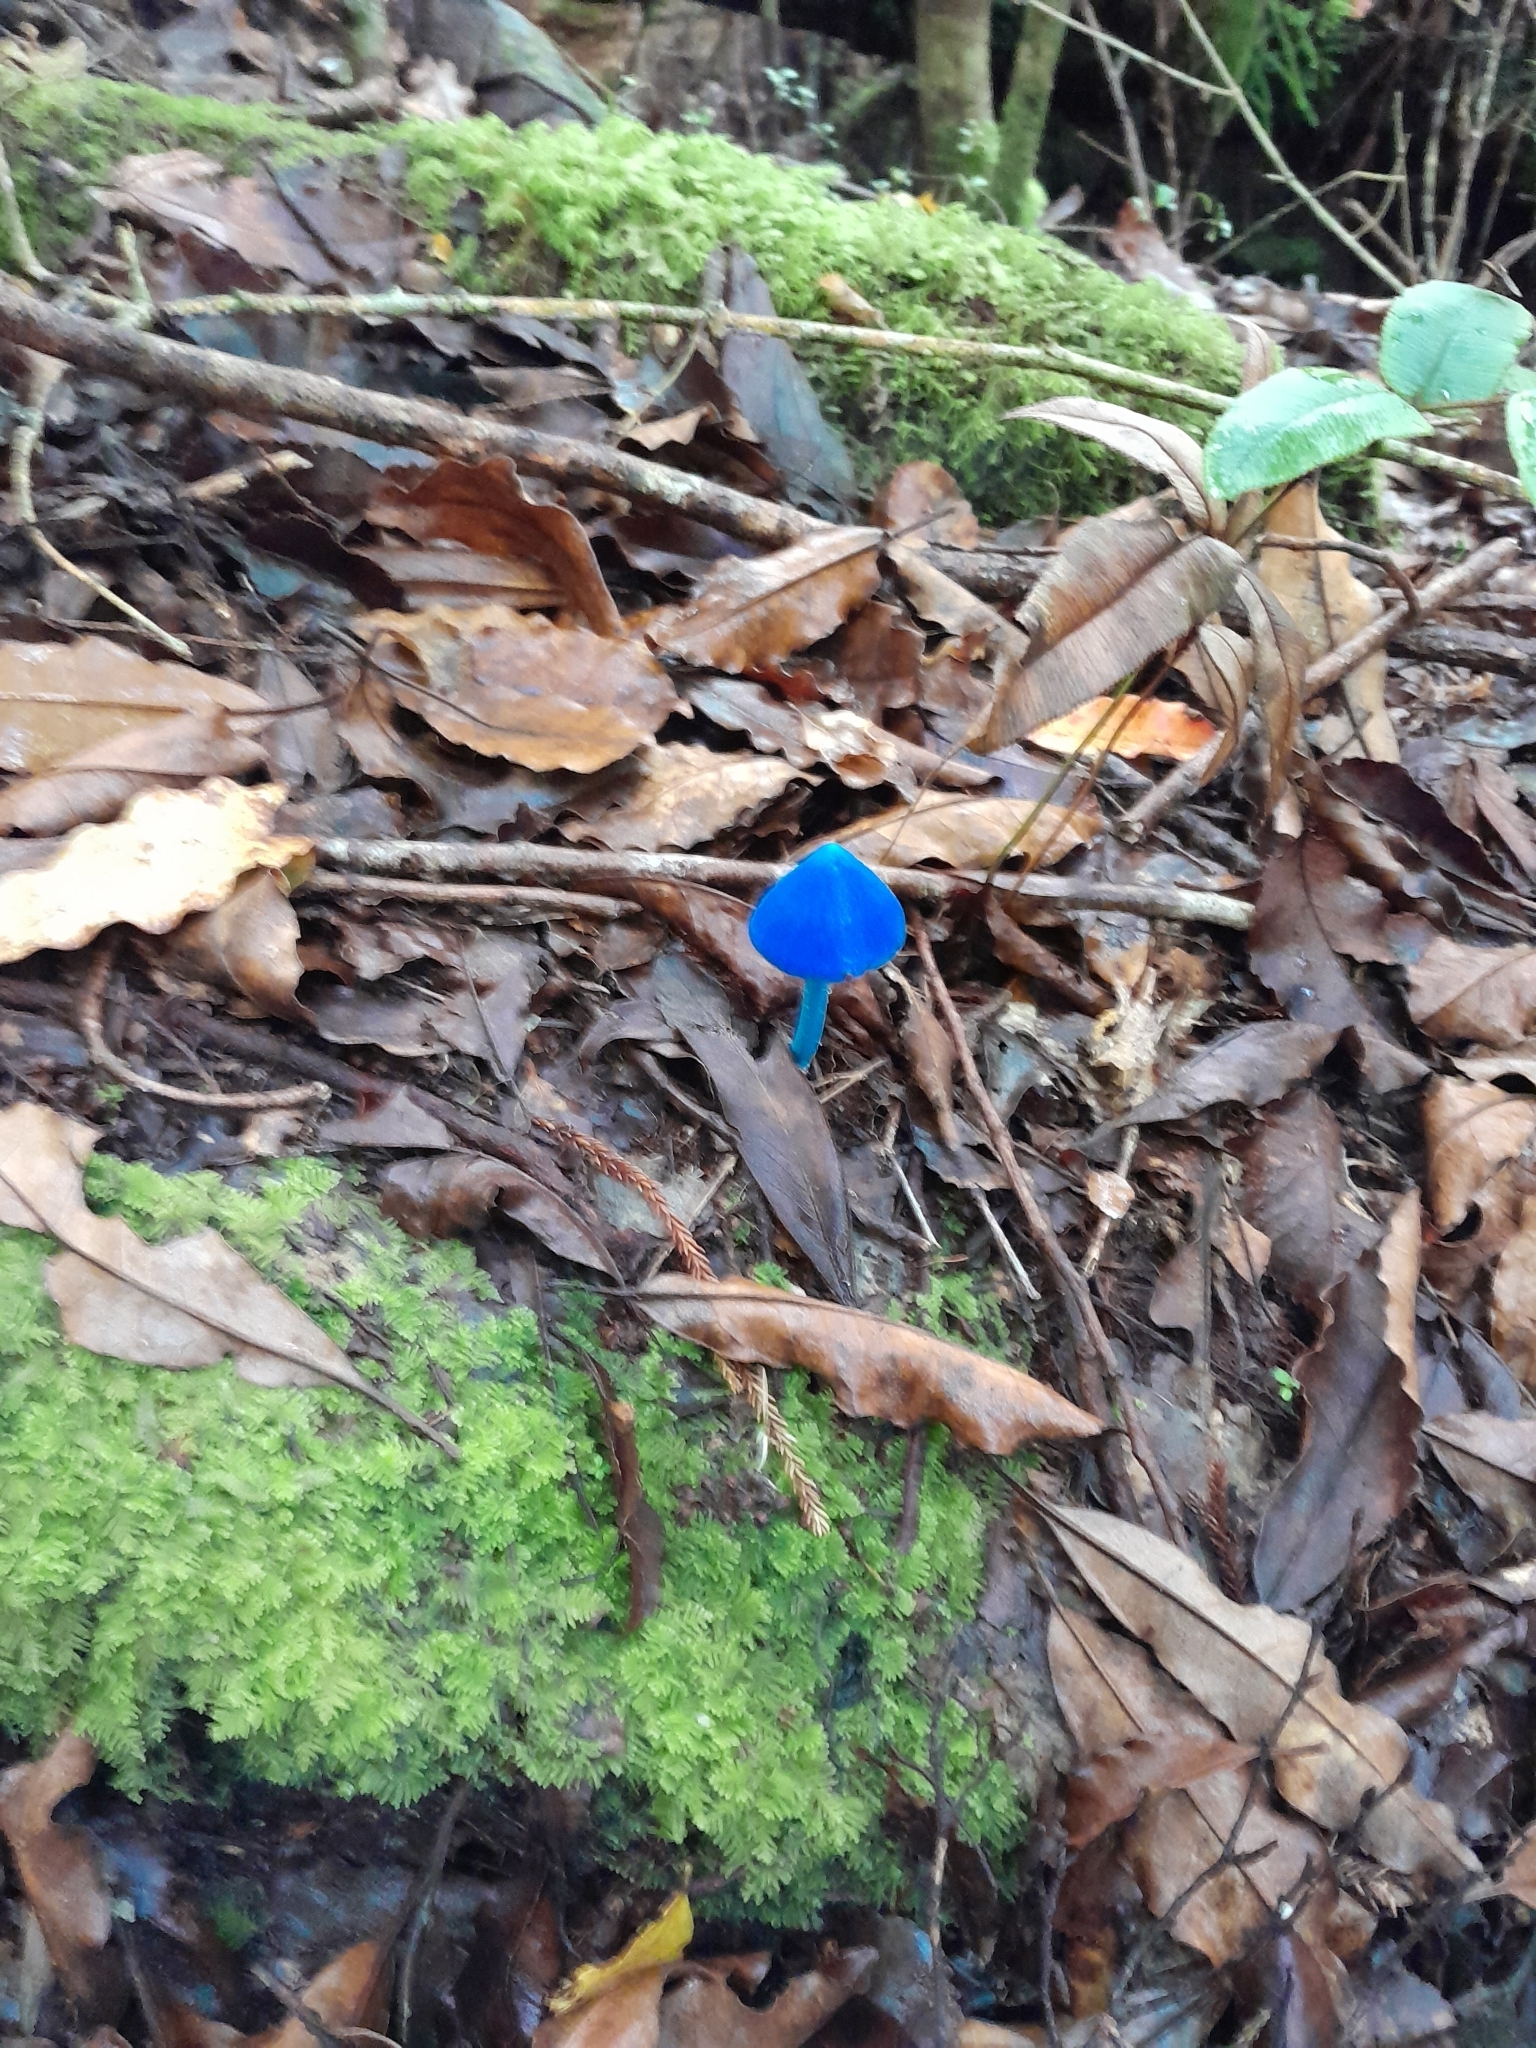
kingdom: Fungi
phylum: Basidiomycota
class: Agaricomycetes
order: Agaricales
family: Entolomataceae
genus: Entoloma
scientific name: Entoloma hochstetteri
